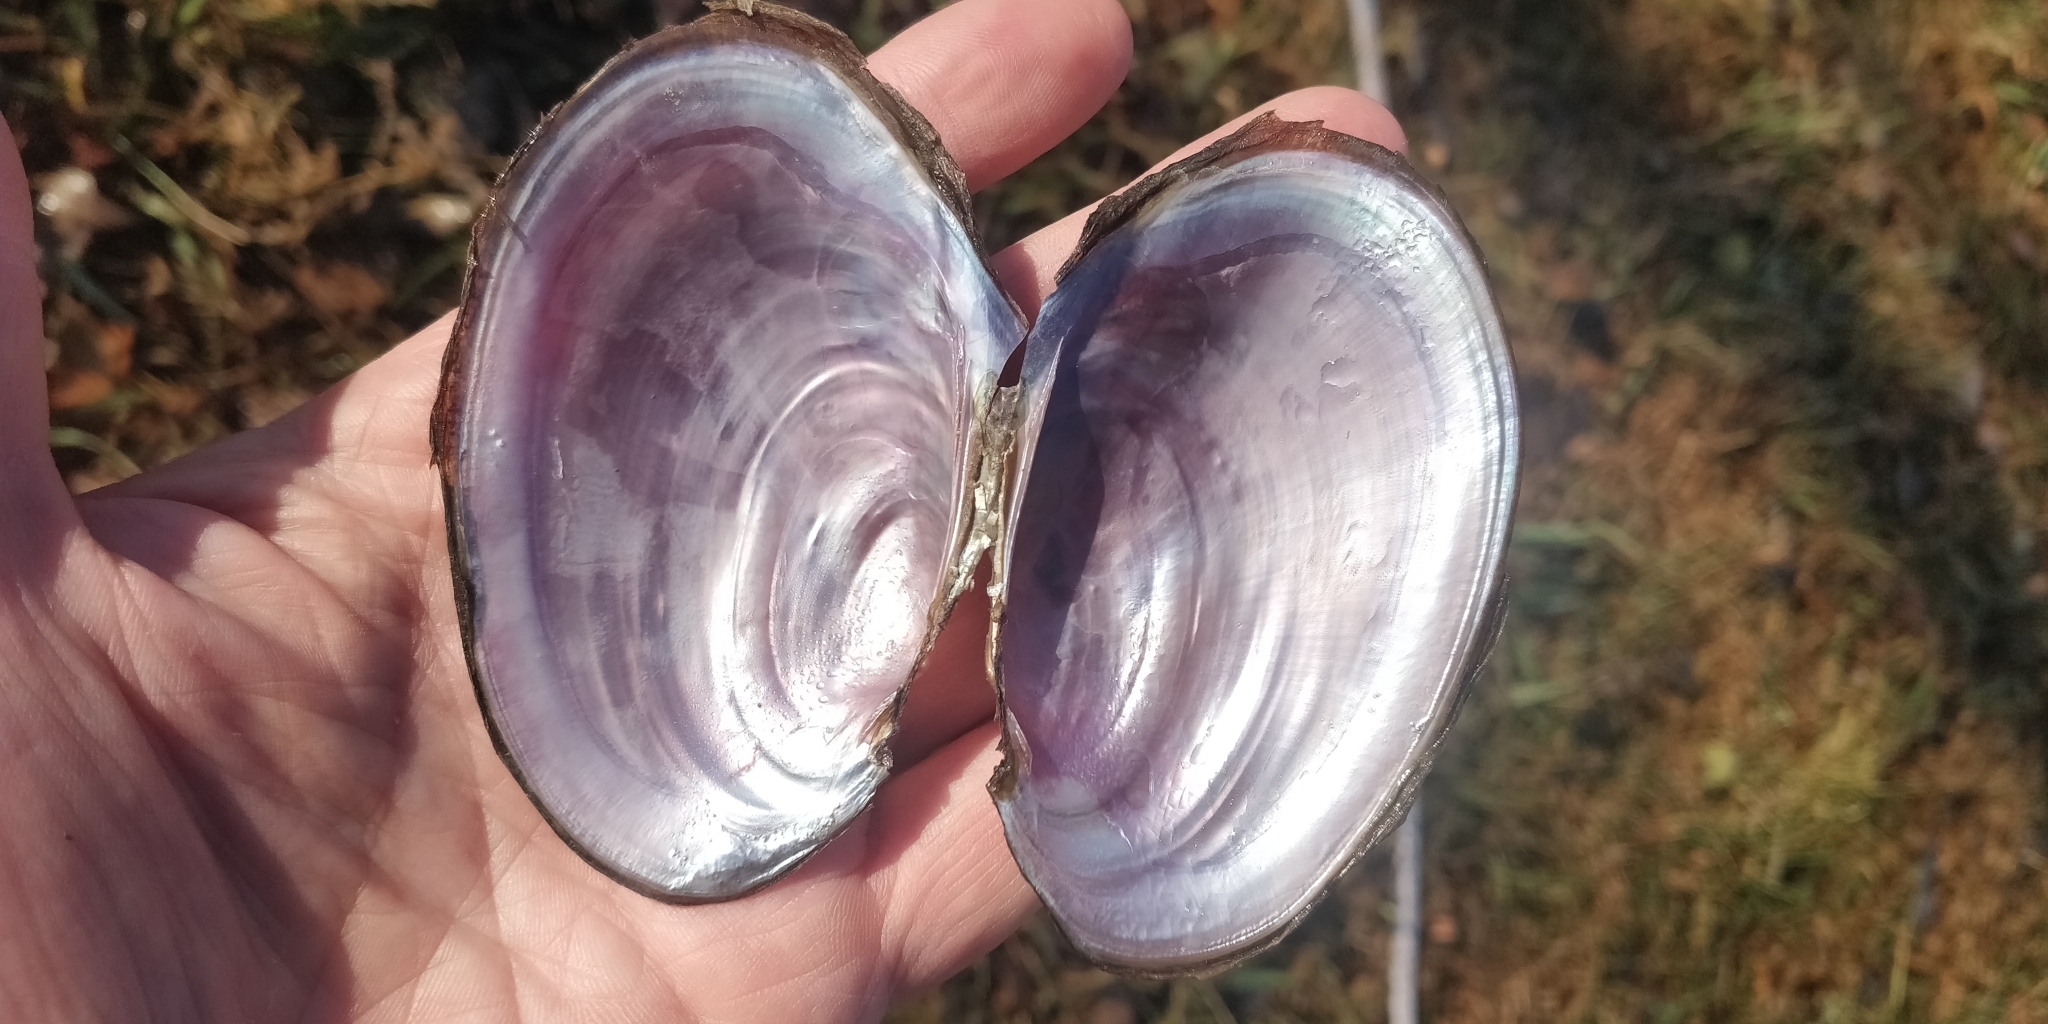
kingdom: Animalia
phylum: Mollusca
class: Bivalvia
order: Unionida
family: Unionidae
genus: Potamilus
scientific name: Potamilus ohiensis
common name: Pink papershell
